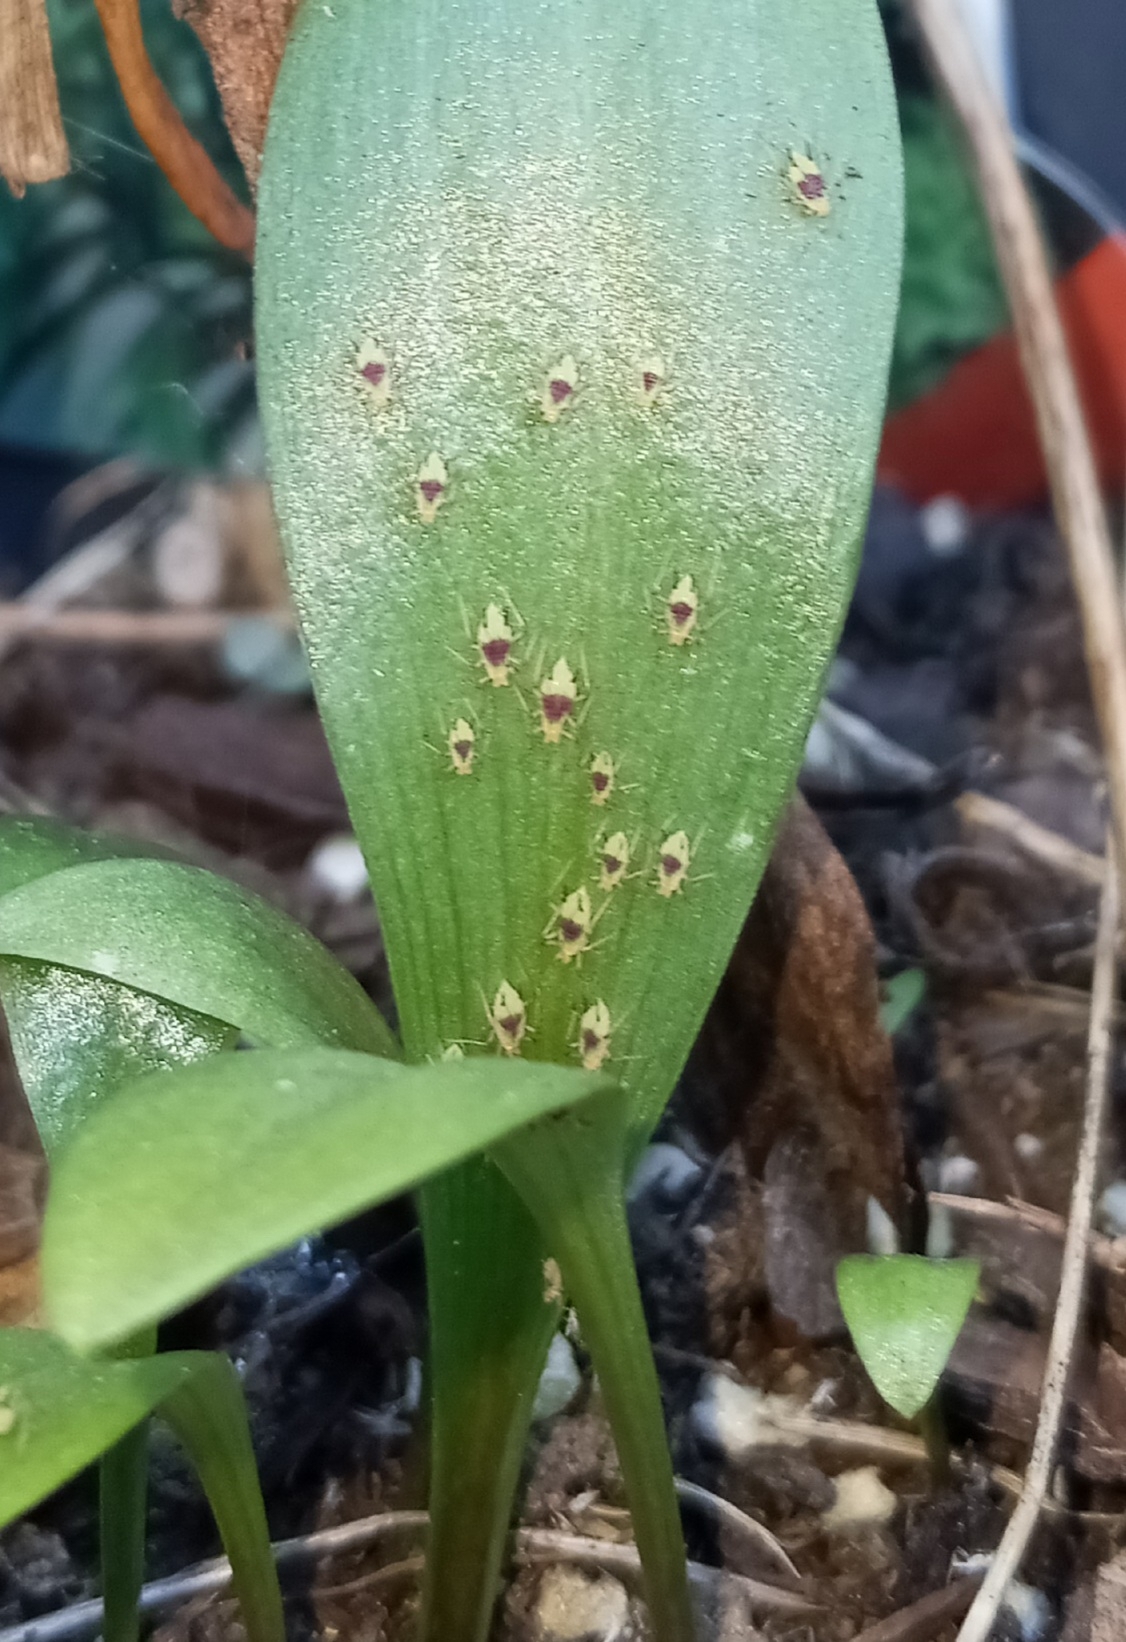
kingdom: Animalia
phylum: Arthropoda
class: Insecta
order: Hemiptera
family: Aphididae
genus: Macrosiphum
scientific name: Macrosiphum lilii
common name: Purplespotted lily aphid
